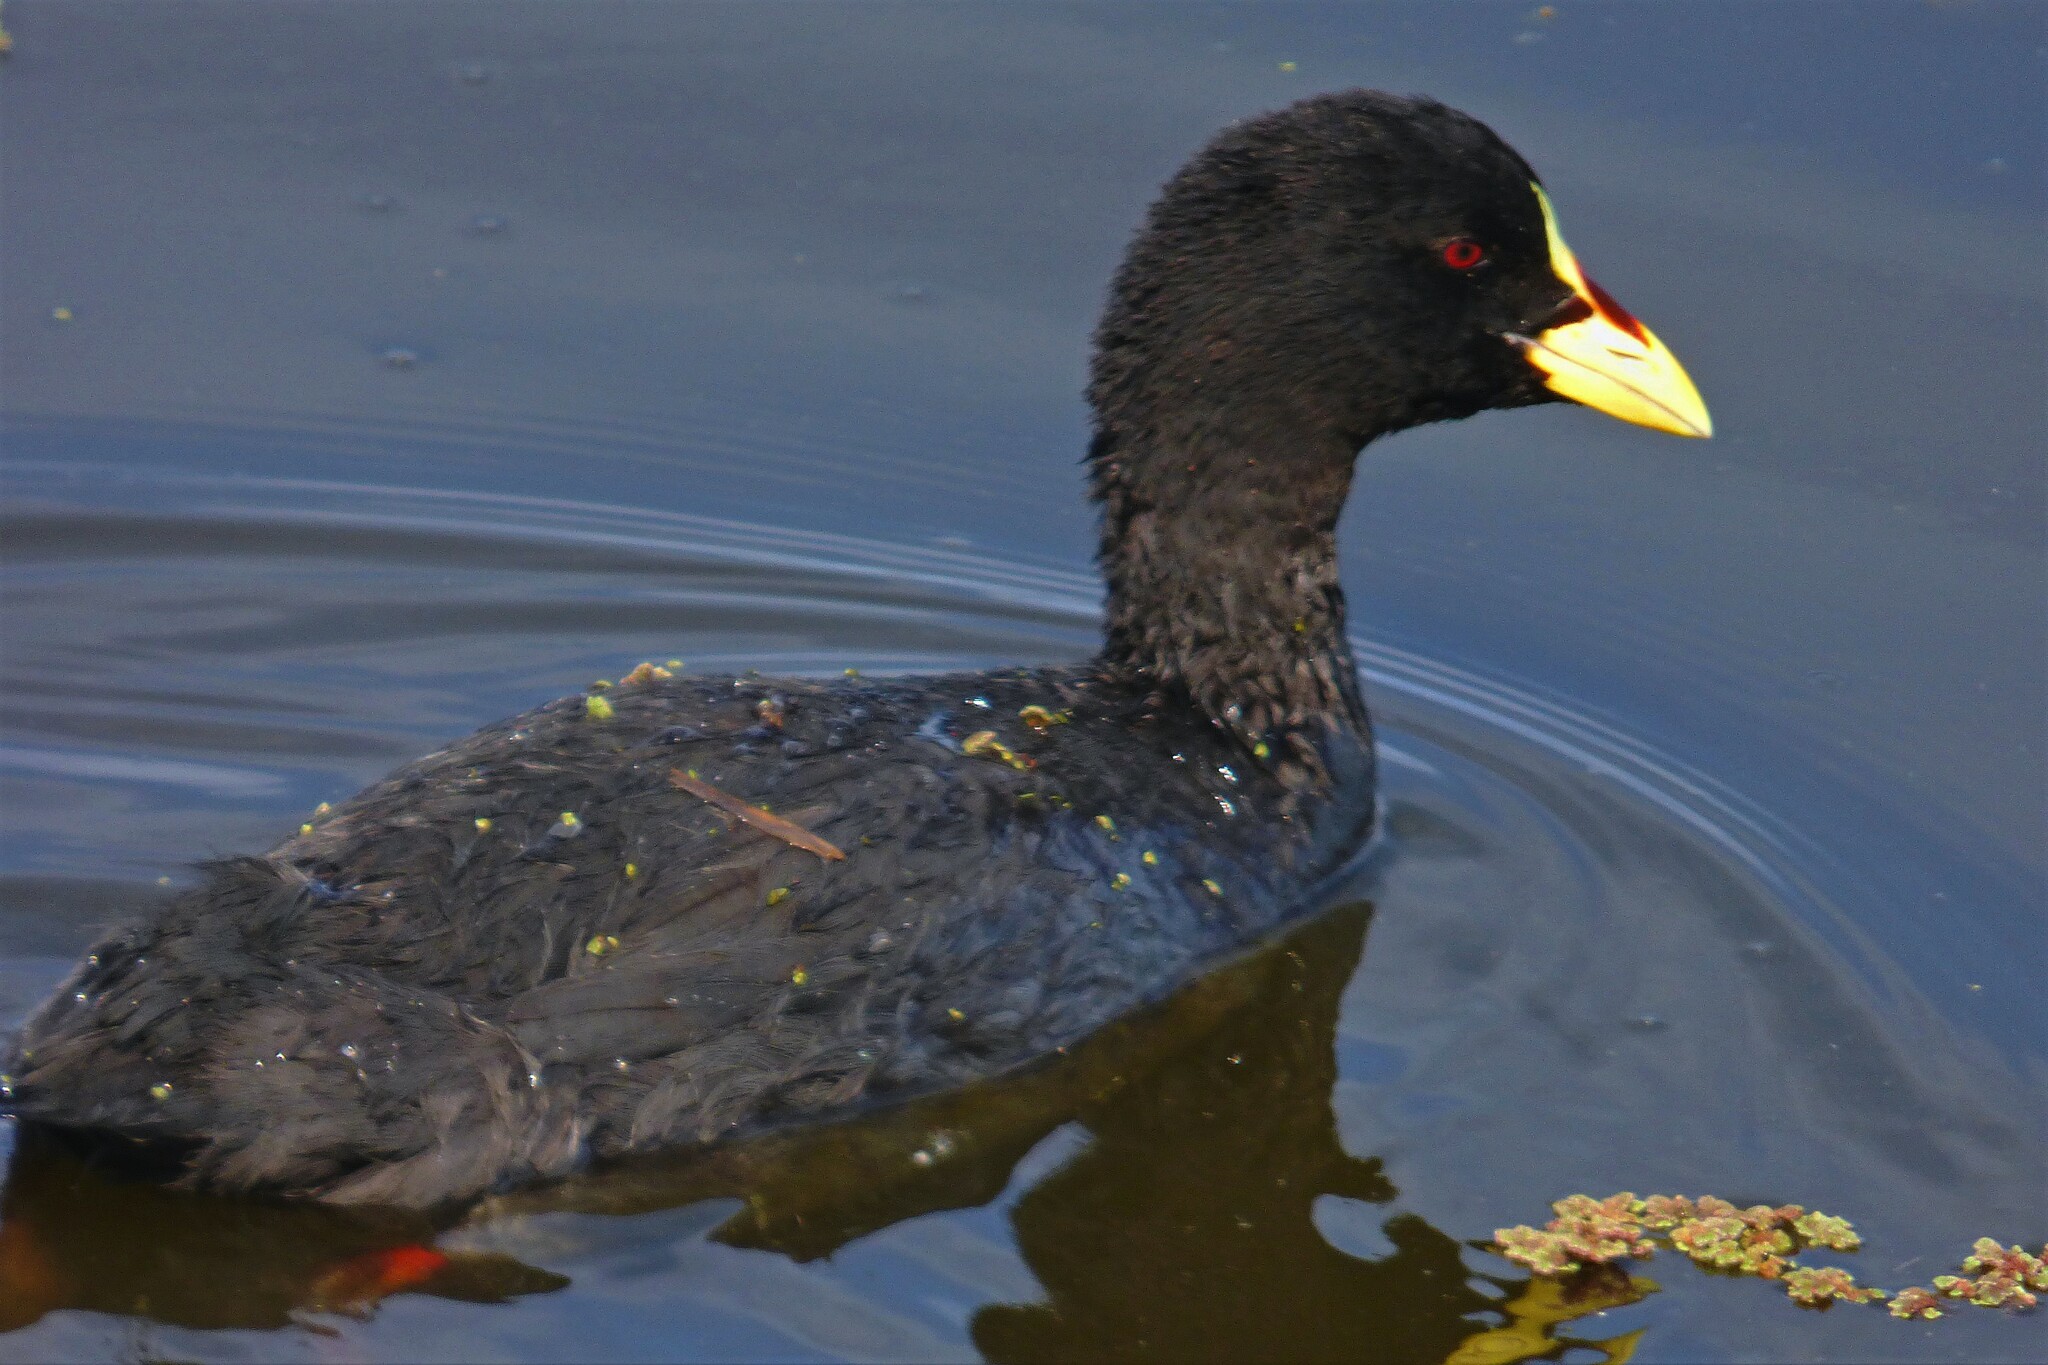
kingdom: Animalia
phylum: Chordata
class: Aves
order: Gruiformes
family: Rallidae
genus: Fulica
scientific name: Fulica armillata
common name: Red-gartered coot
